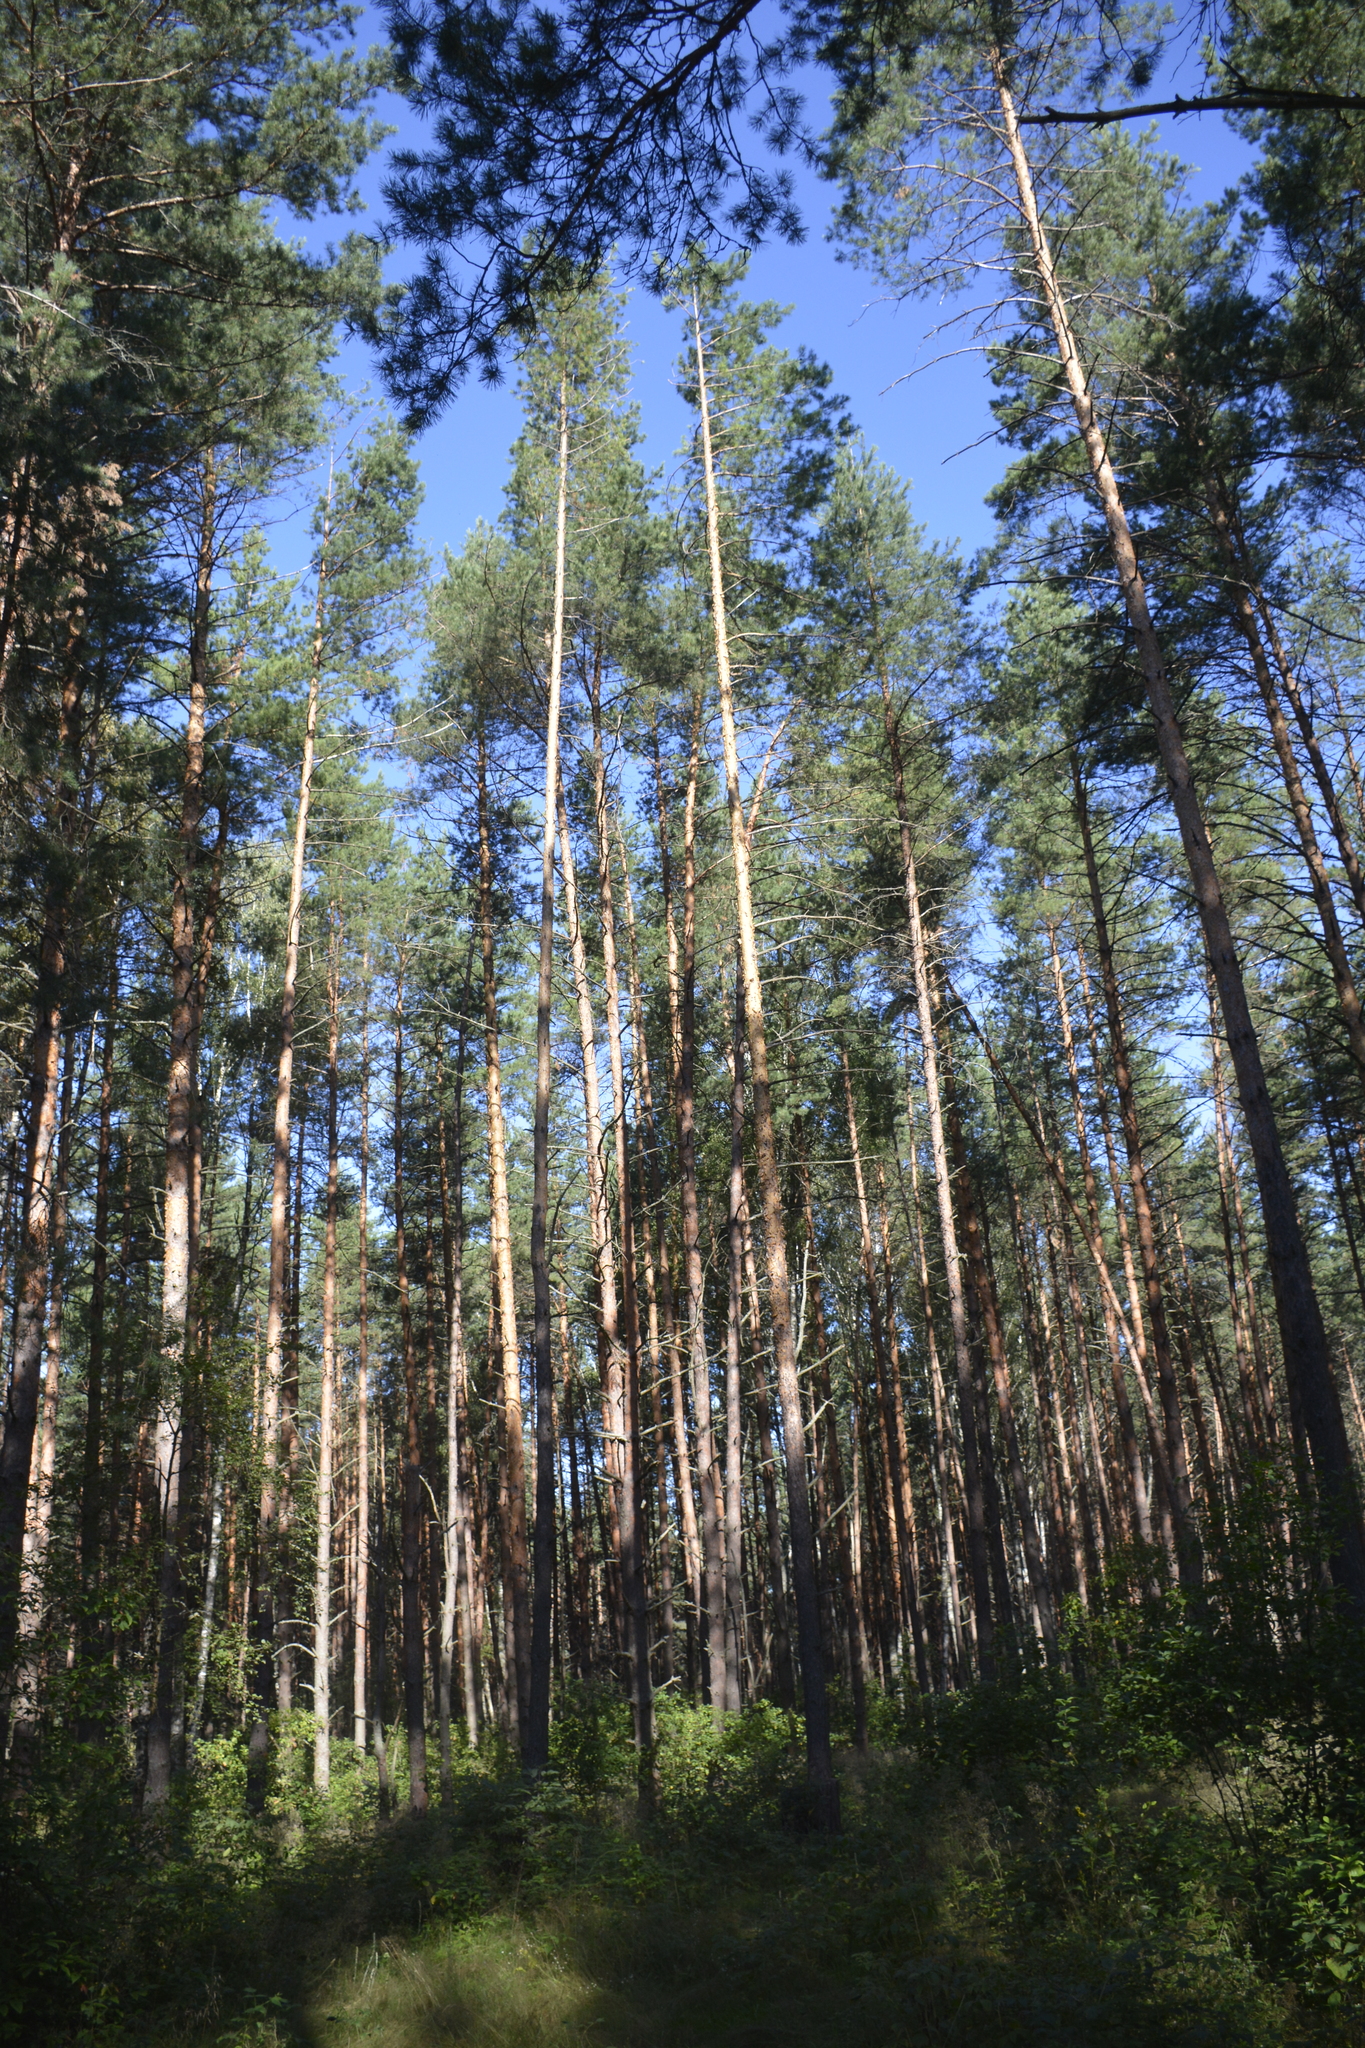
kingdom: Plantae
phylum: Tracheophyta
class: Pinopsida
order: Pinales
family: Pinaceae
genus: Pinus
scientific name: Pinus sylvestris
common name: Scots pine
